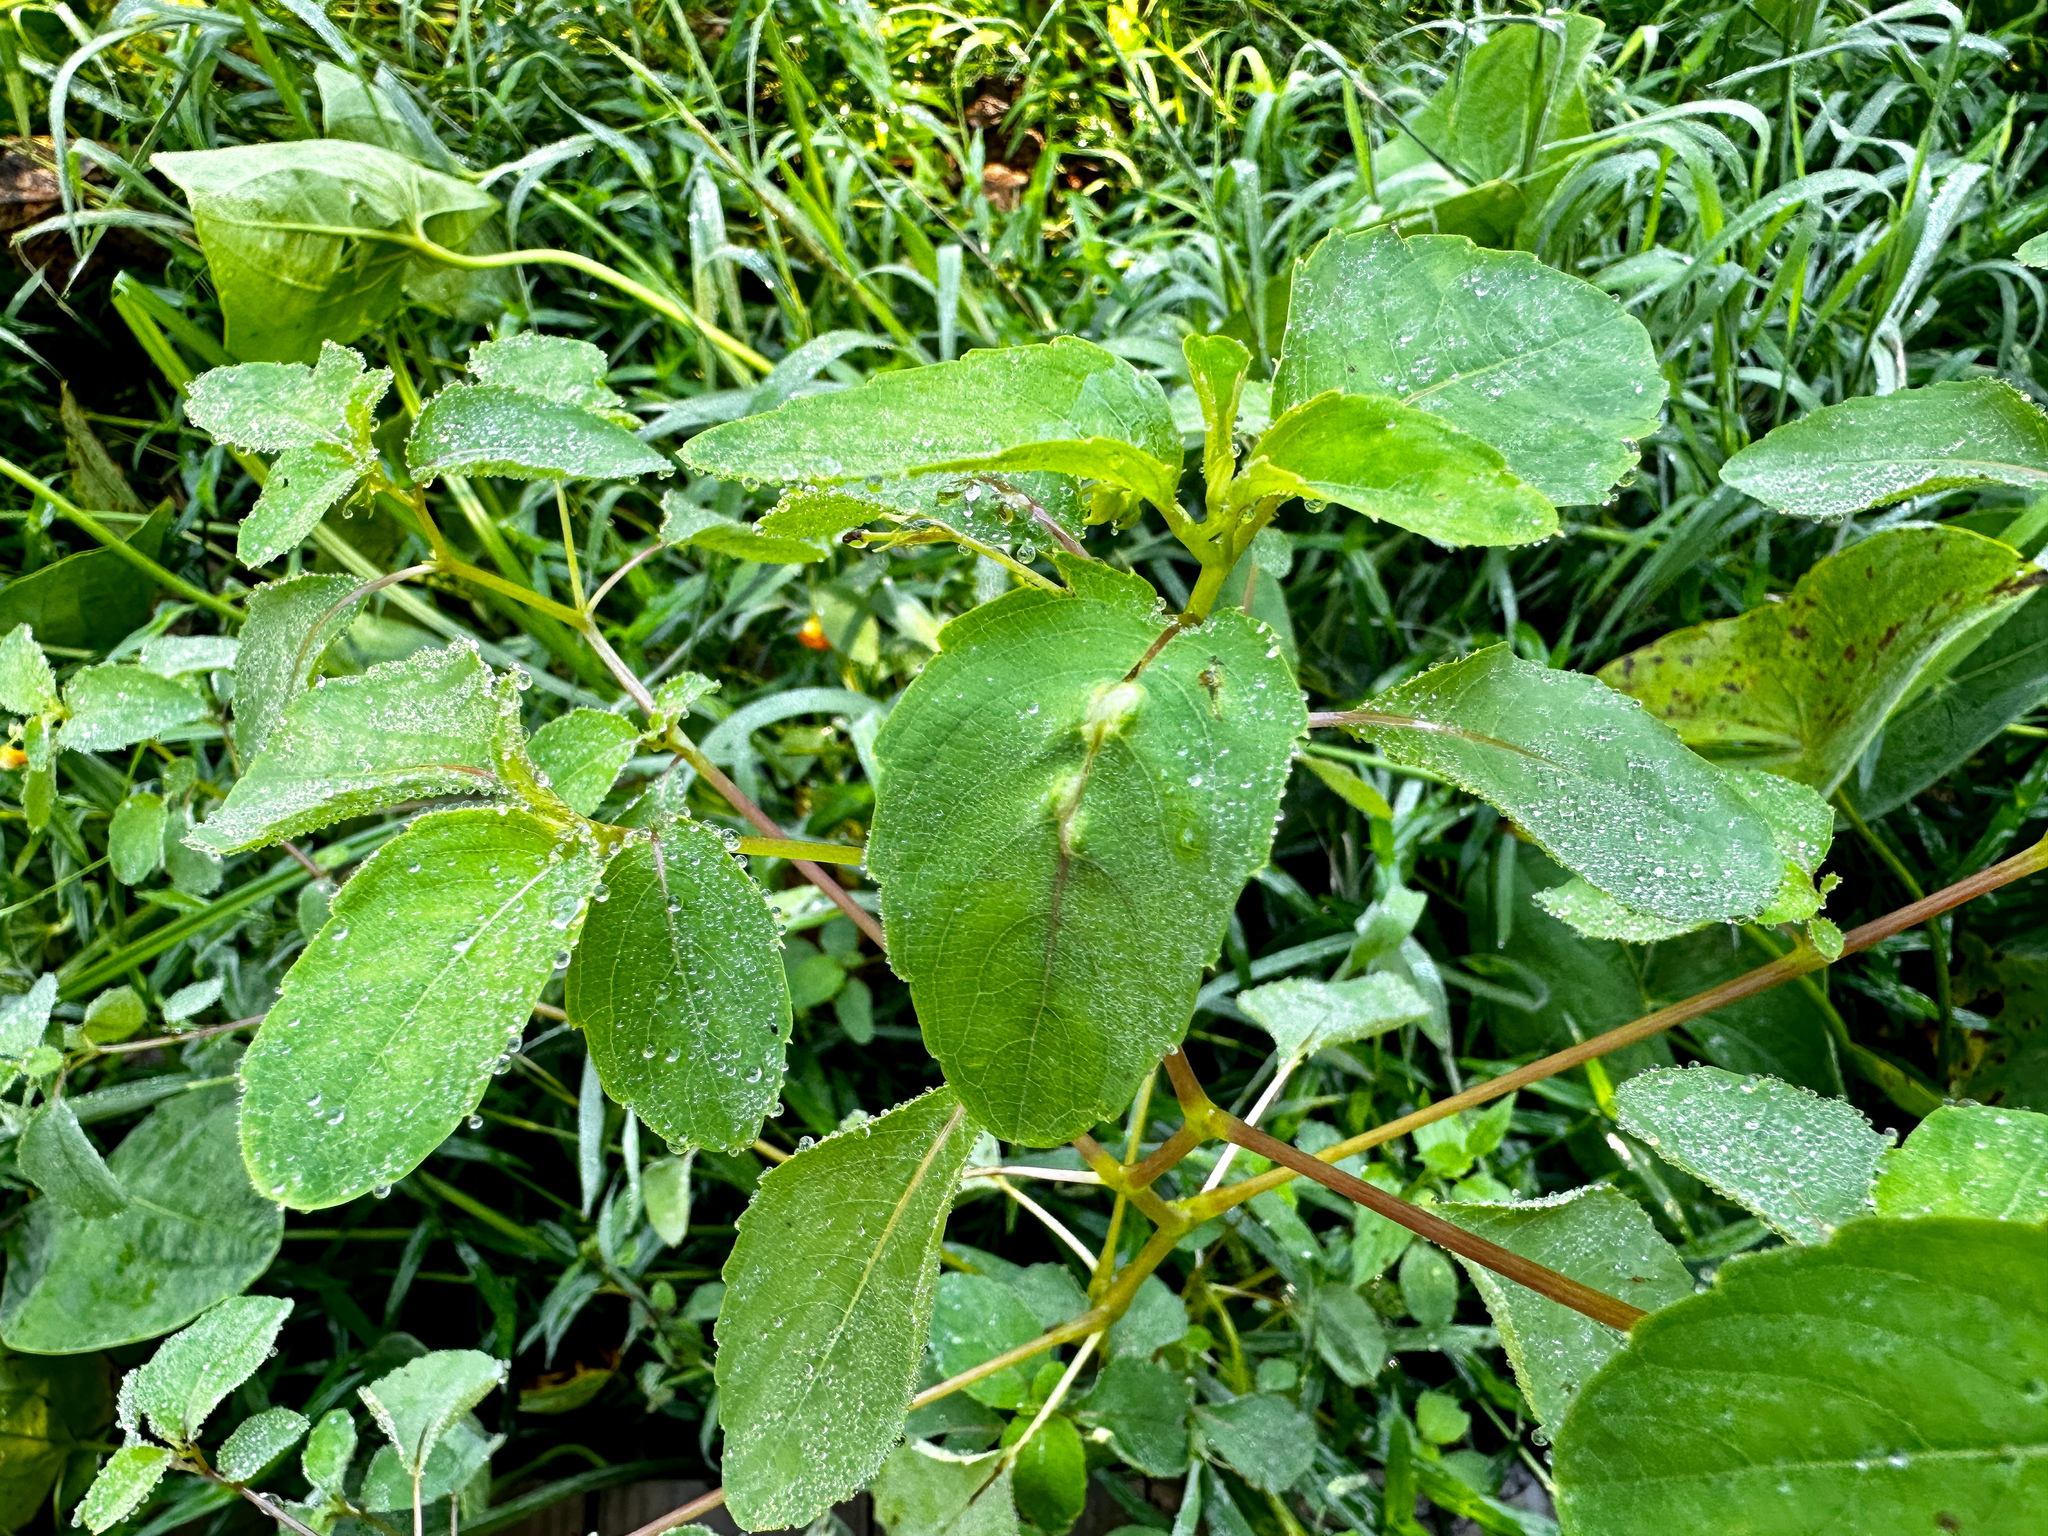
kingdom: Animalia
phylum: Arthropoda
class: Insecta
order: Diptera
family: Cecidomyiidae
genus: Neolasioptera
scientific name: Neolasioptera impatientifolia
